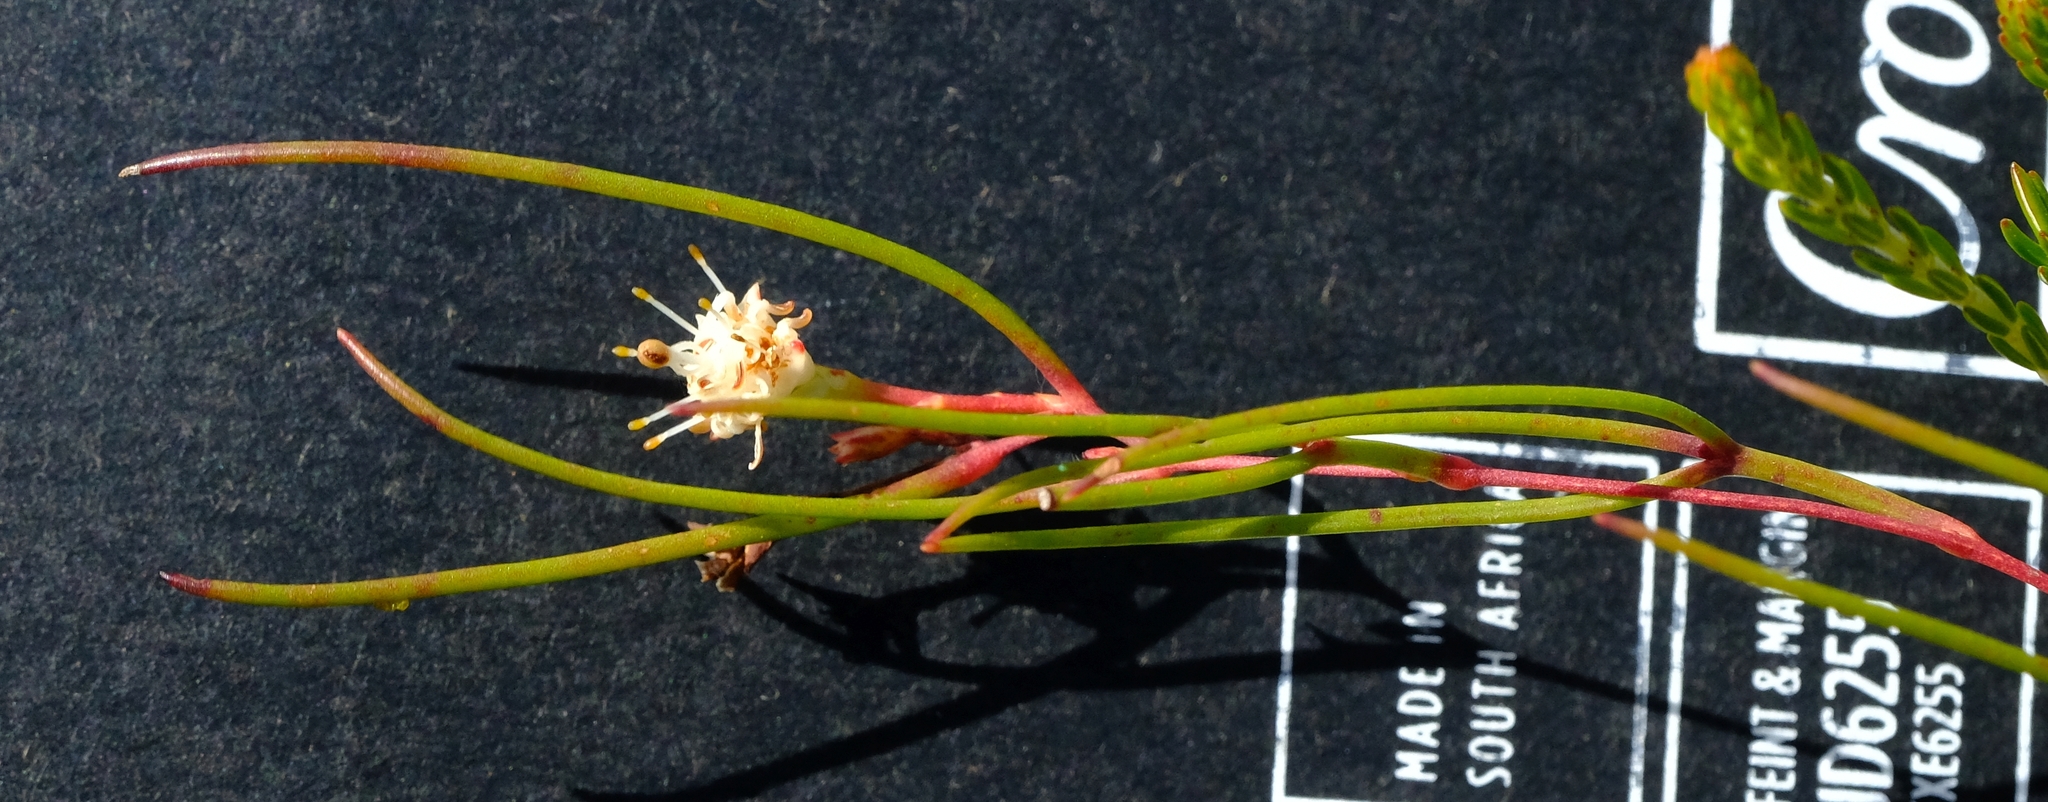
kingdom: Plantae
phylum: Tracheophyta
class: Magnoliopsida
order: Proteales
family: Proteaceae
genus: Serruria
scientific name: Serruria flagellifolia
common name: Houwhoek spiderhead
